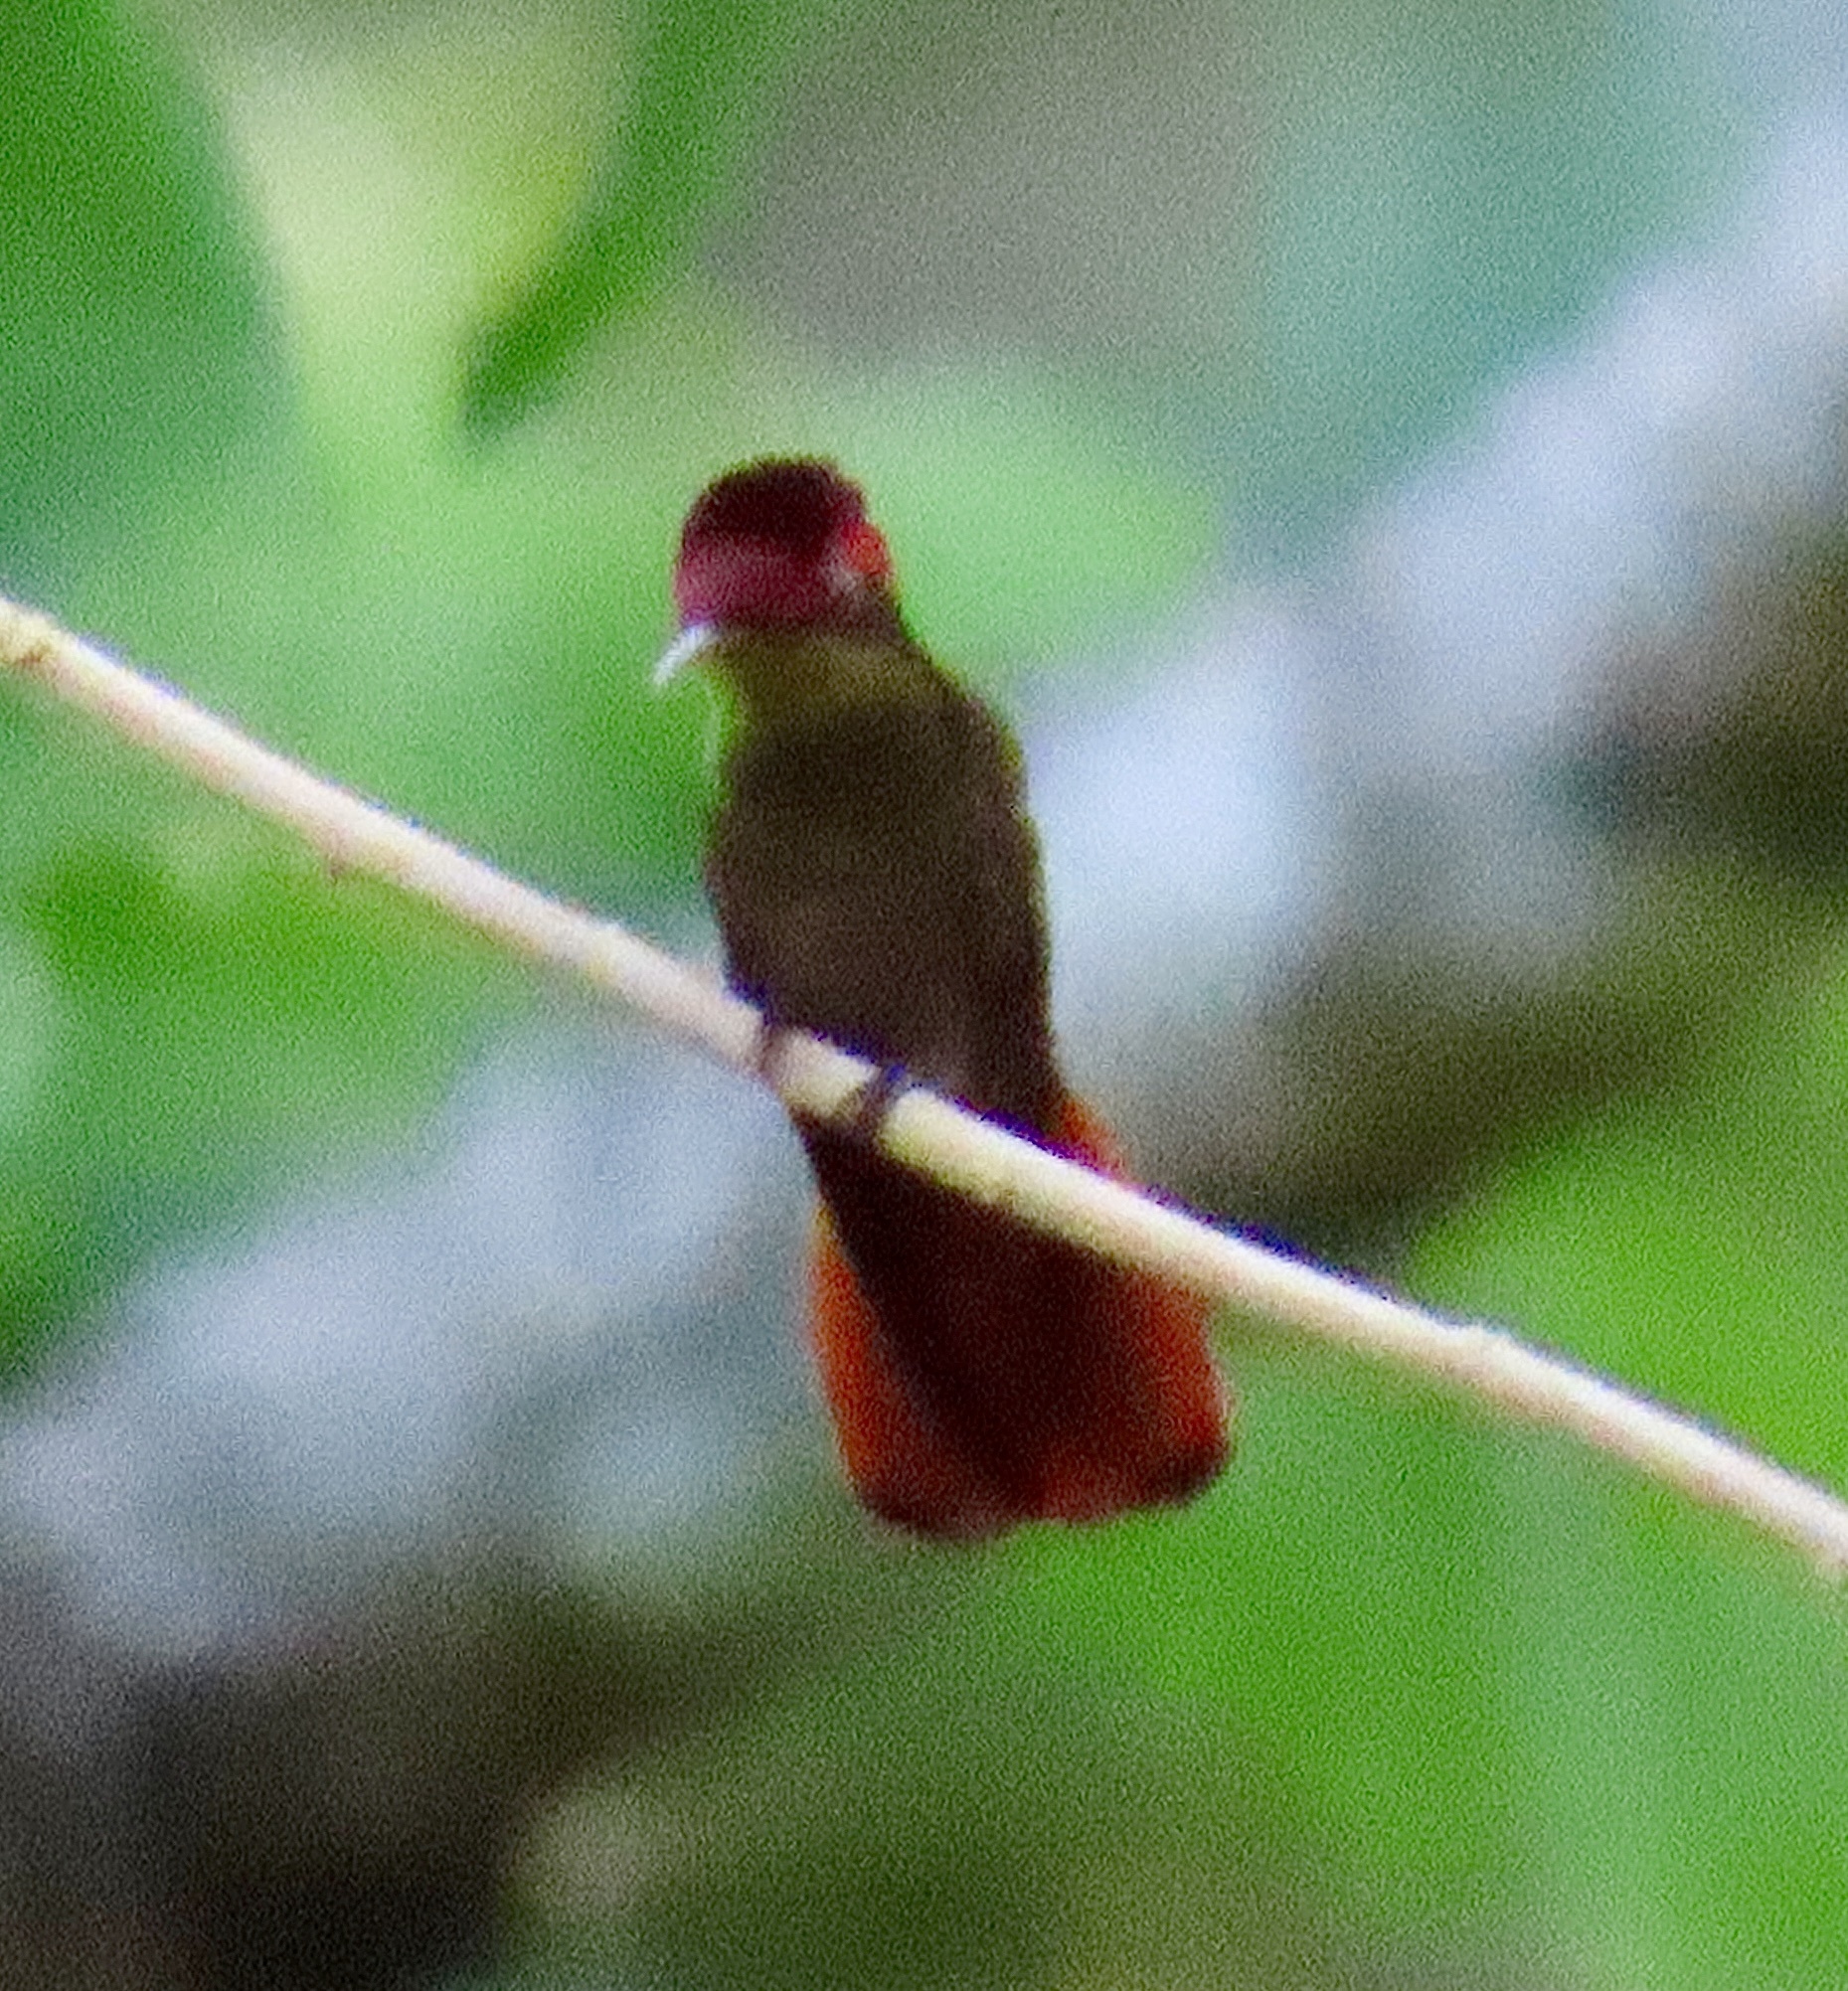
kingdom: Animalia
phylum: Chordata
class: Aves
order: Apodiformes
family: Trochilidae
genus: Chrysolampis
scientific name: Chrysolampis mosquitus
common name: Ruby-topaz hummingbird
